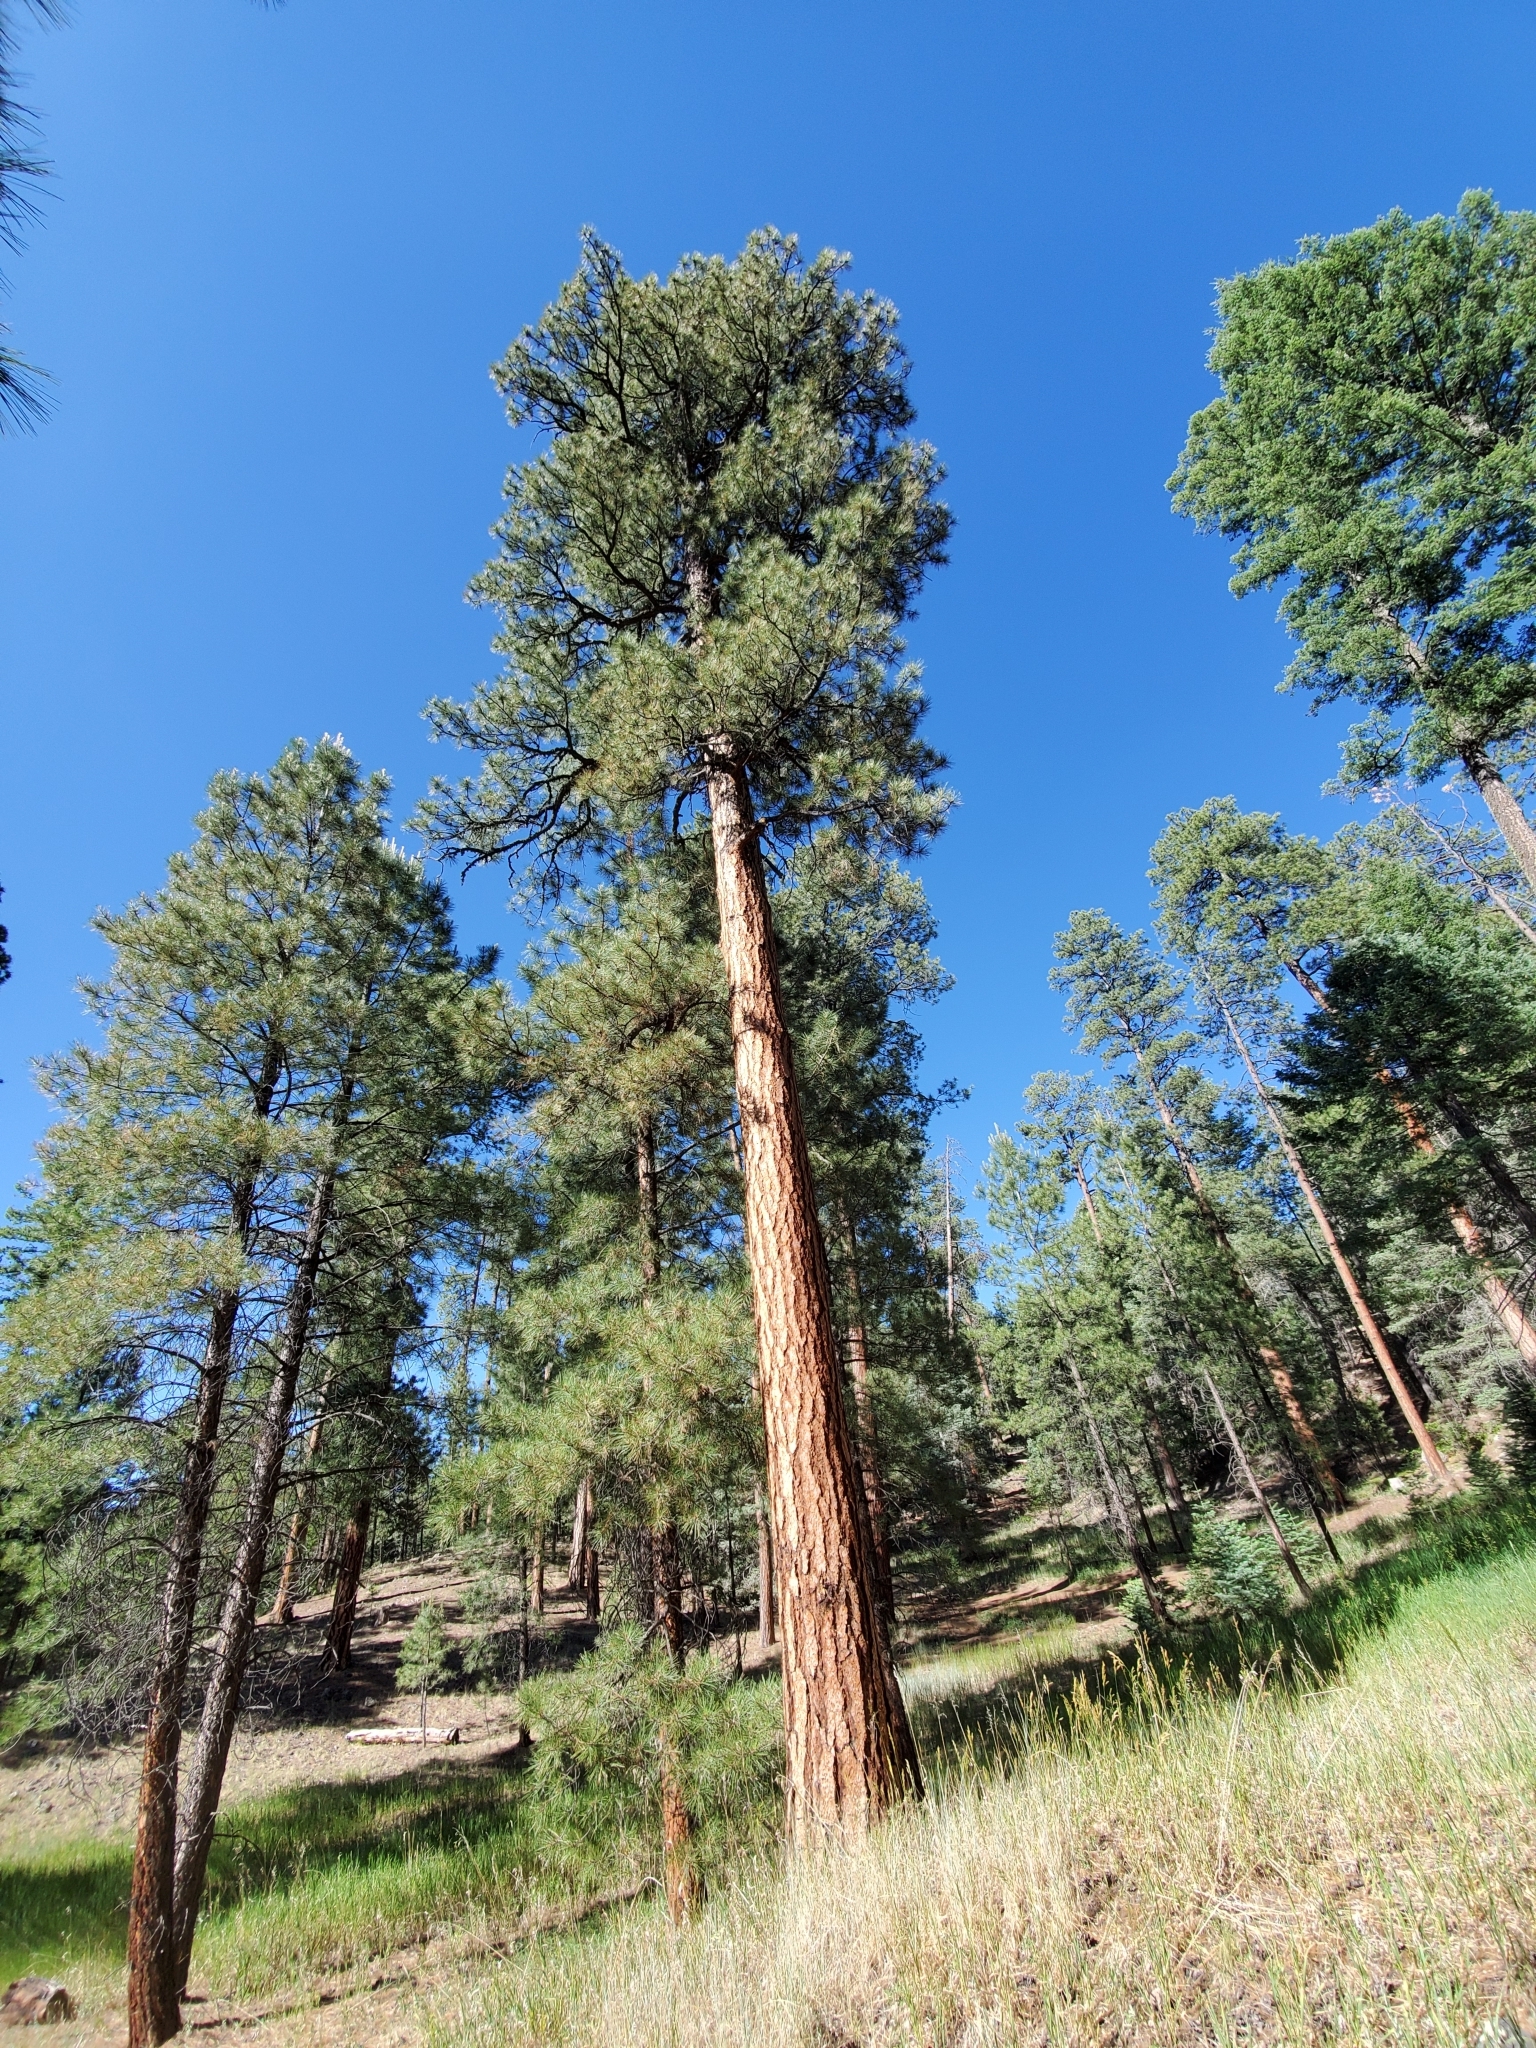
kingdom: Plantae
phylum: Tracheophyta
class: Pinopsida
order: Pinales
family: Pinaceae
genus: Pinus
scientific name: Pinus ponderosa
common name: Western yellow-pine
